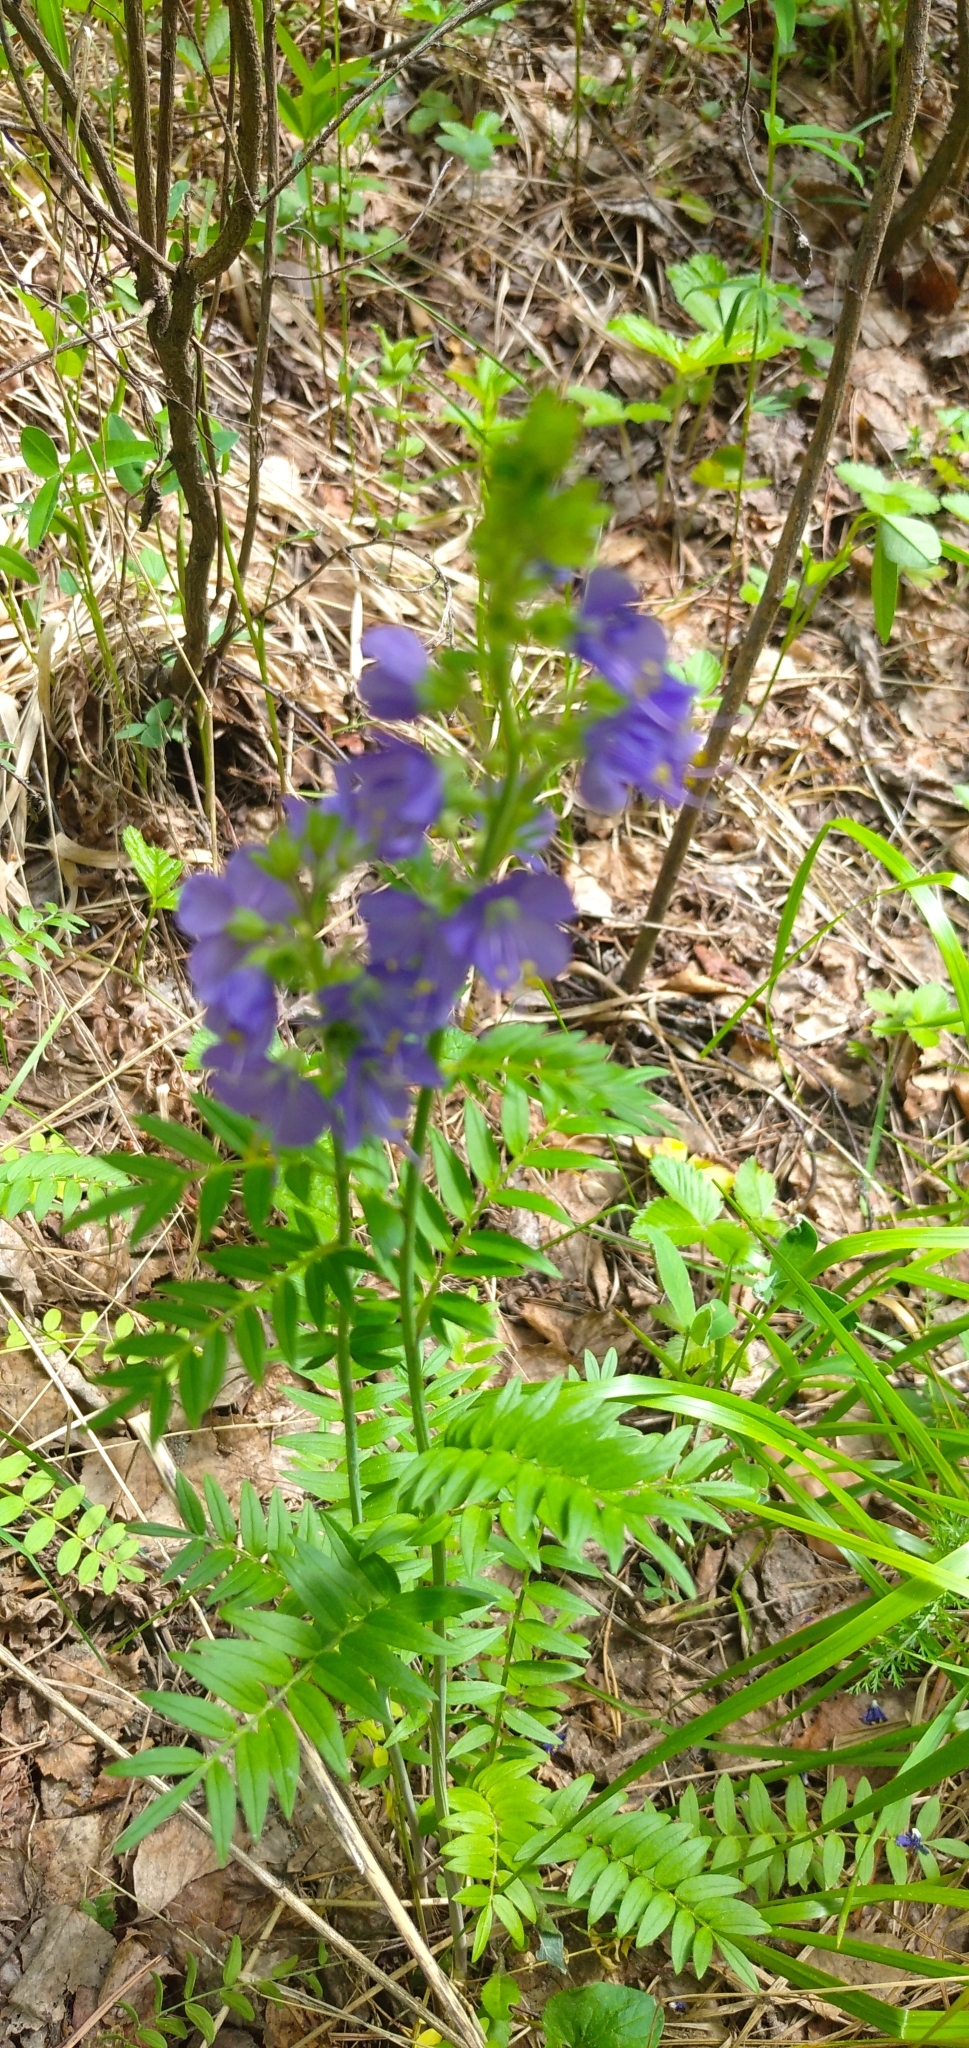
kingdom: Plantae
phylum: Tracheophyta
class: Magnoliopsida
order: Ericales
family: Polemoniaceae
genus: Polemonium
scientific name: Polemonium caeruleum
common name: Jacob's-ladder
